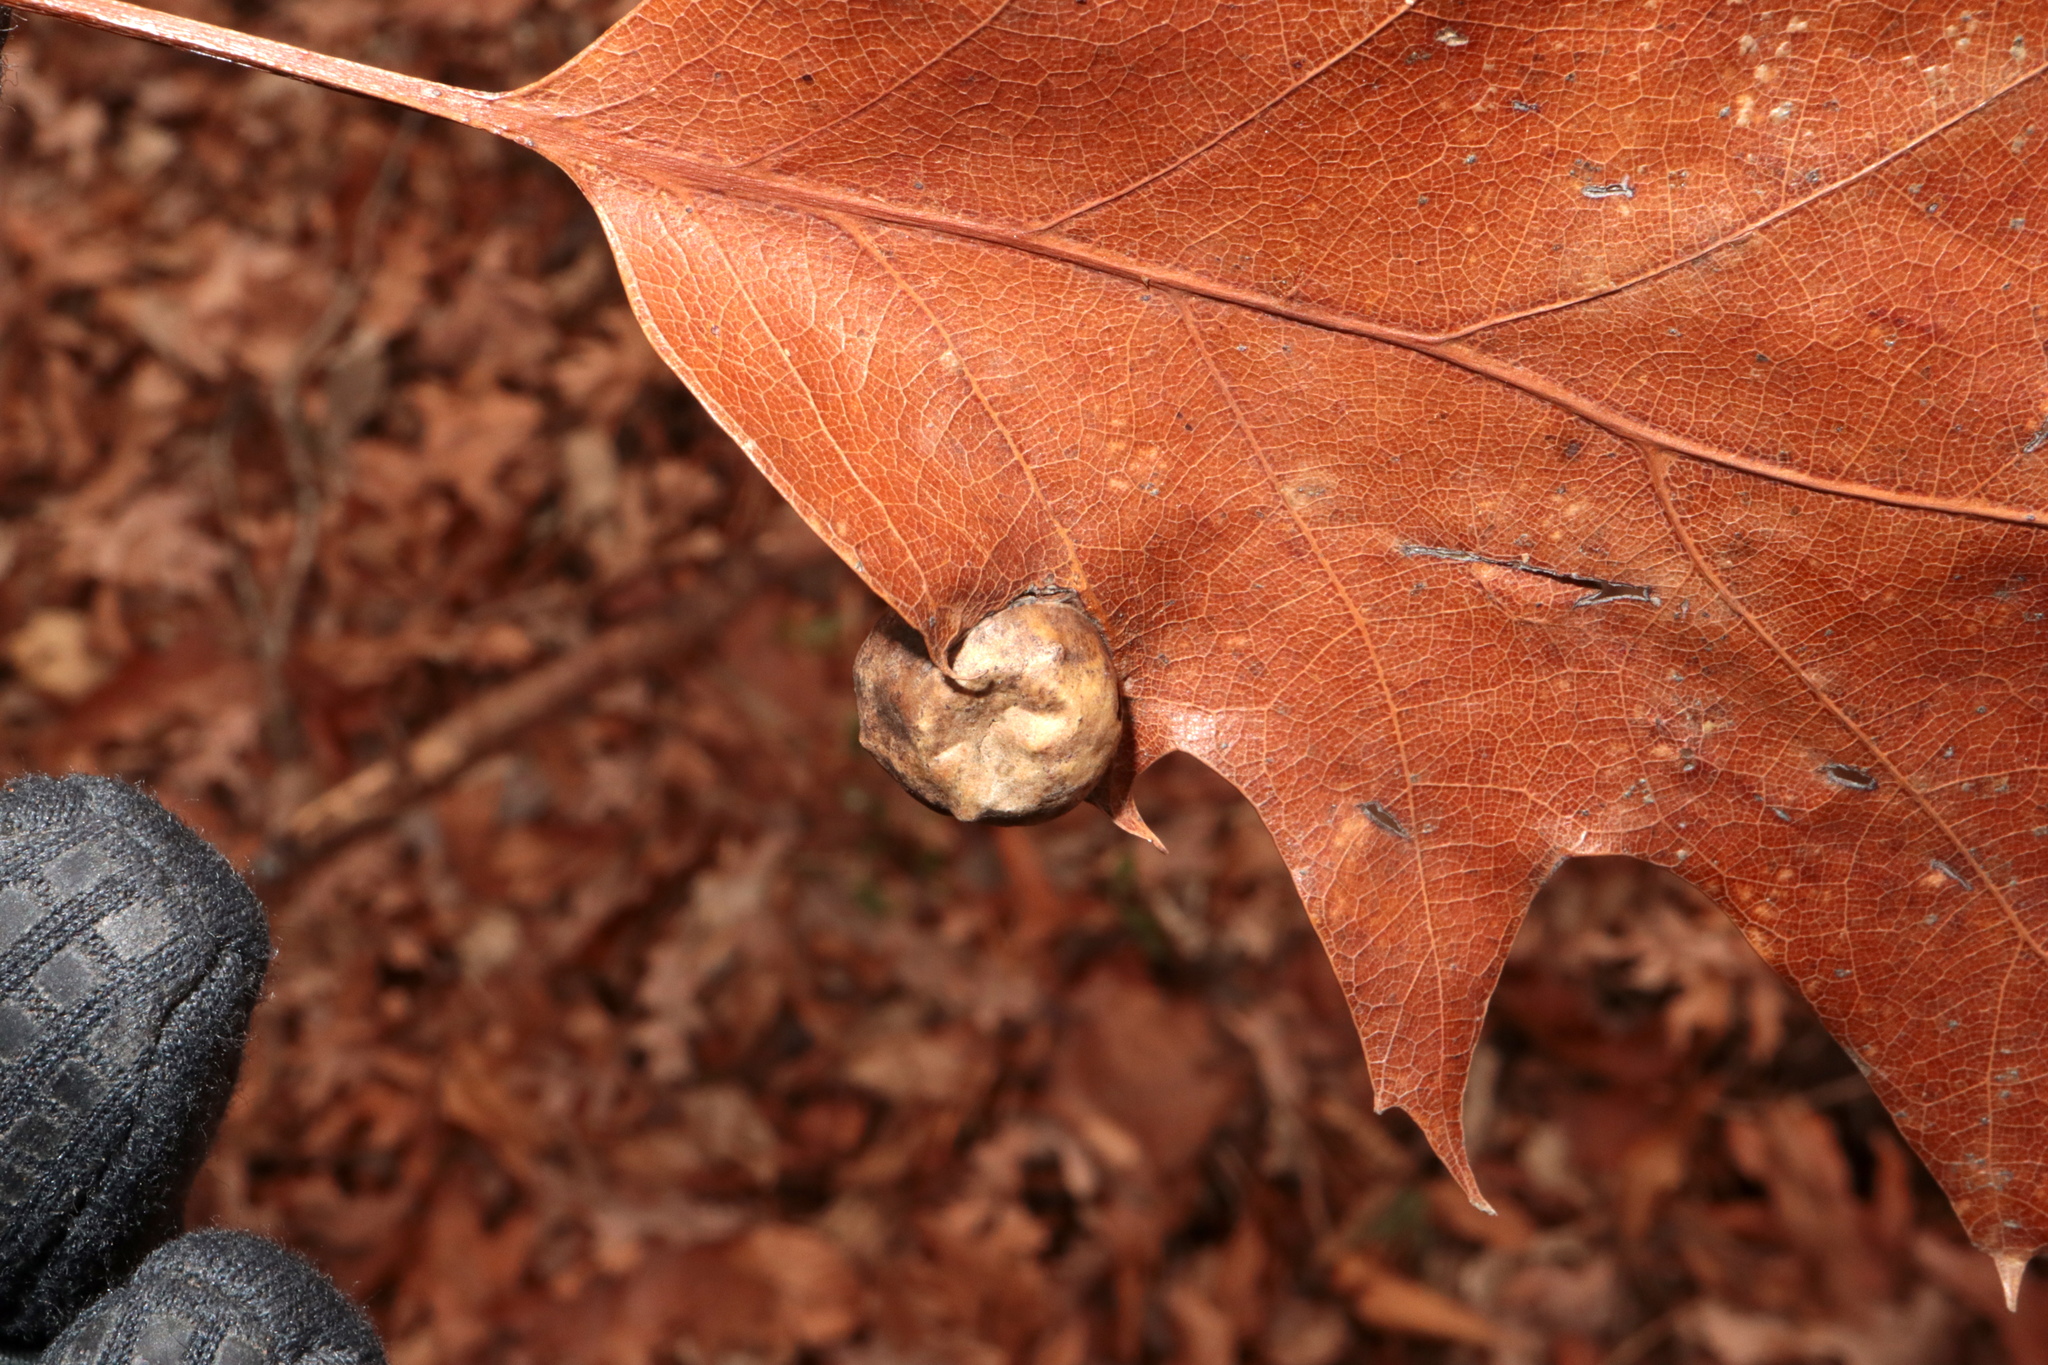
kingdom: Animalia
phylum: Arthropoda
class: Insecta
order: Hymenoptera
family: Cynipidae
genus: Amphibolips
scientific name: Amphibolips
